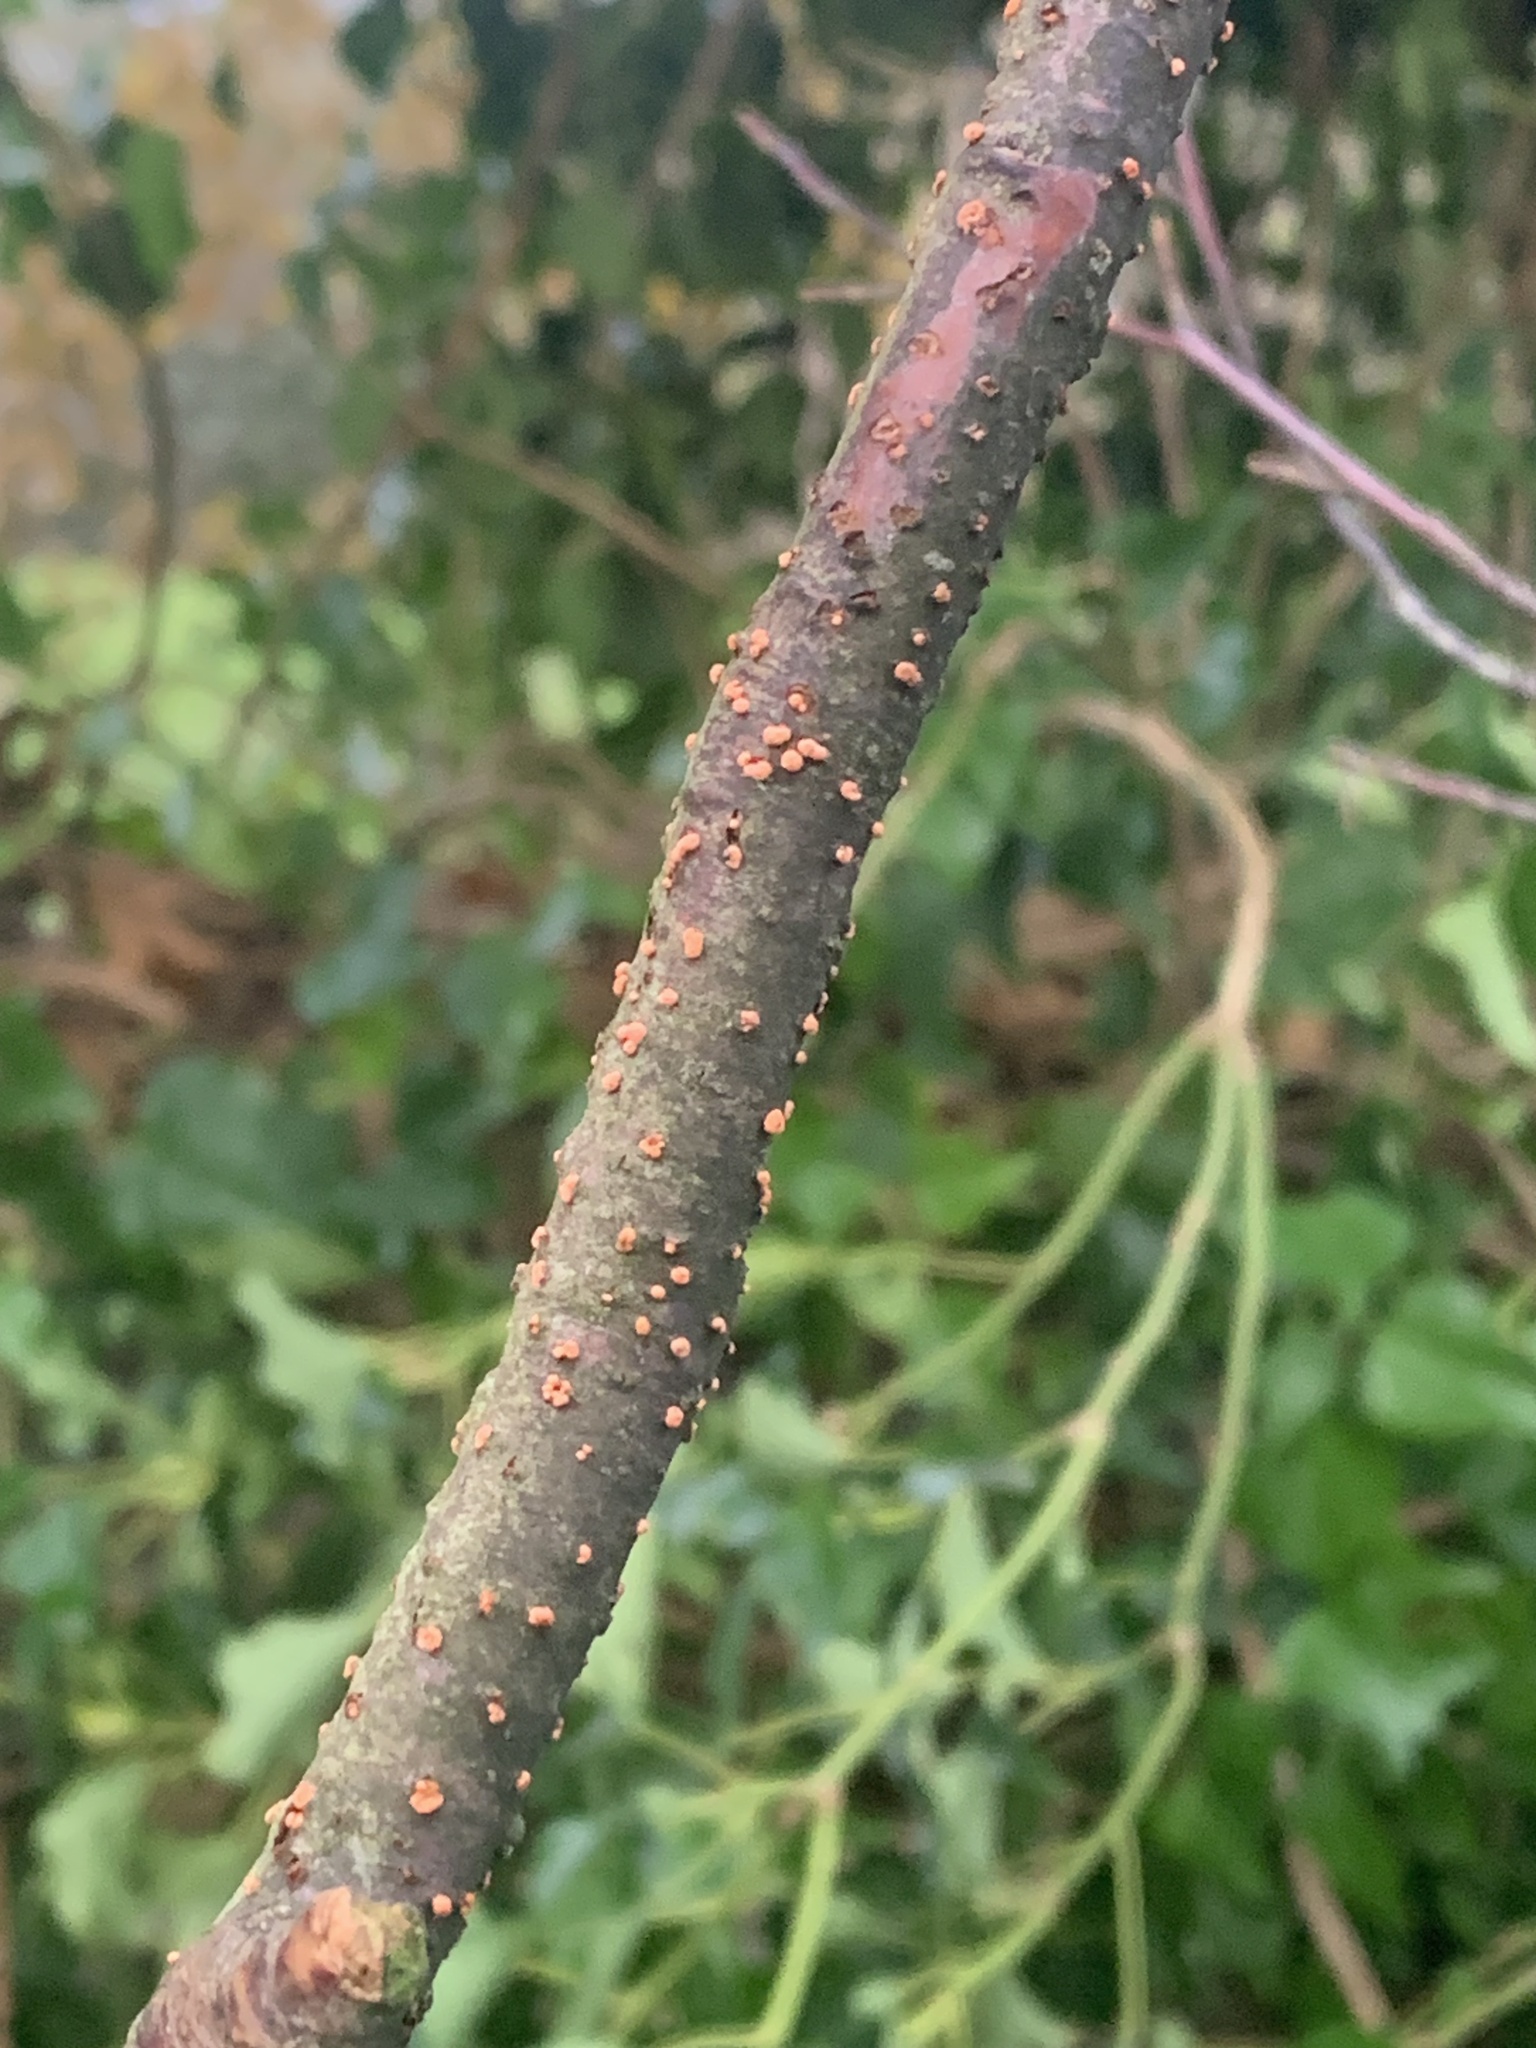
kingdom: Fungi
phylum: Ascomycota
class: Sordariomycetes
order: Hypocreales
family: Nectriaceae
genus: Nectria
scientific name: Nectria cinnabarina
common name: Coral spot
